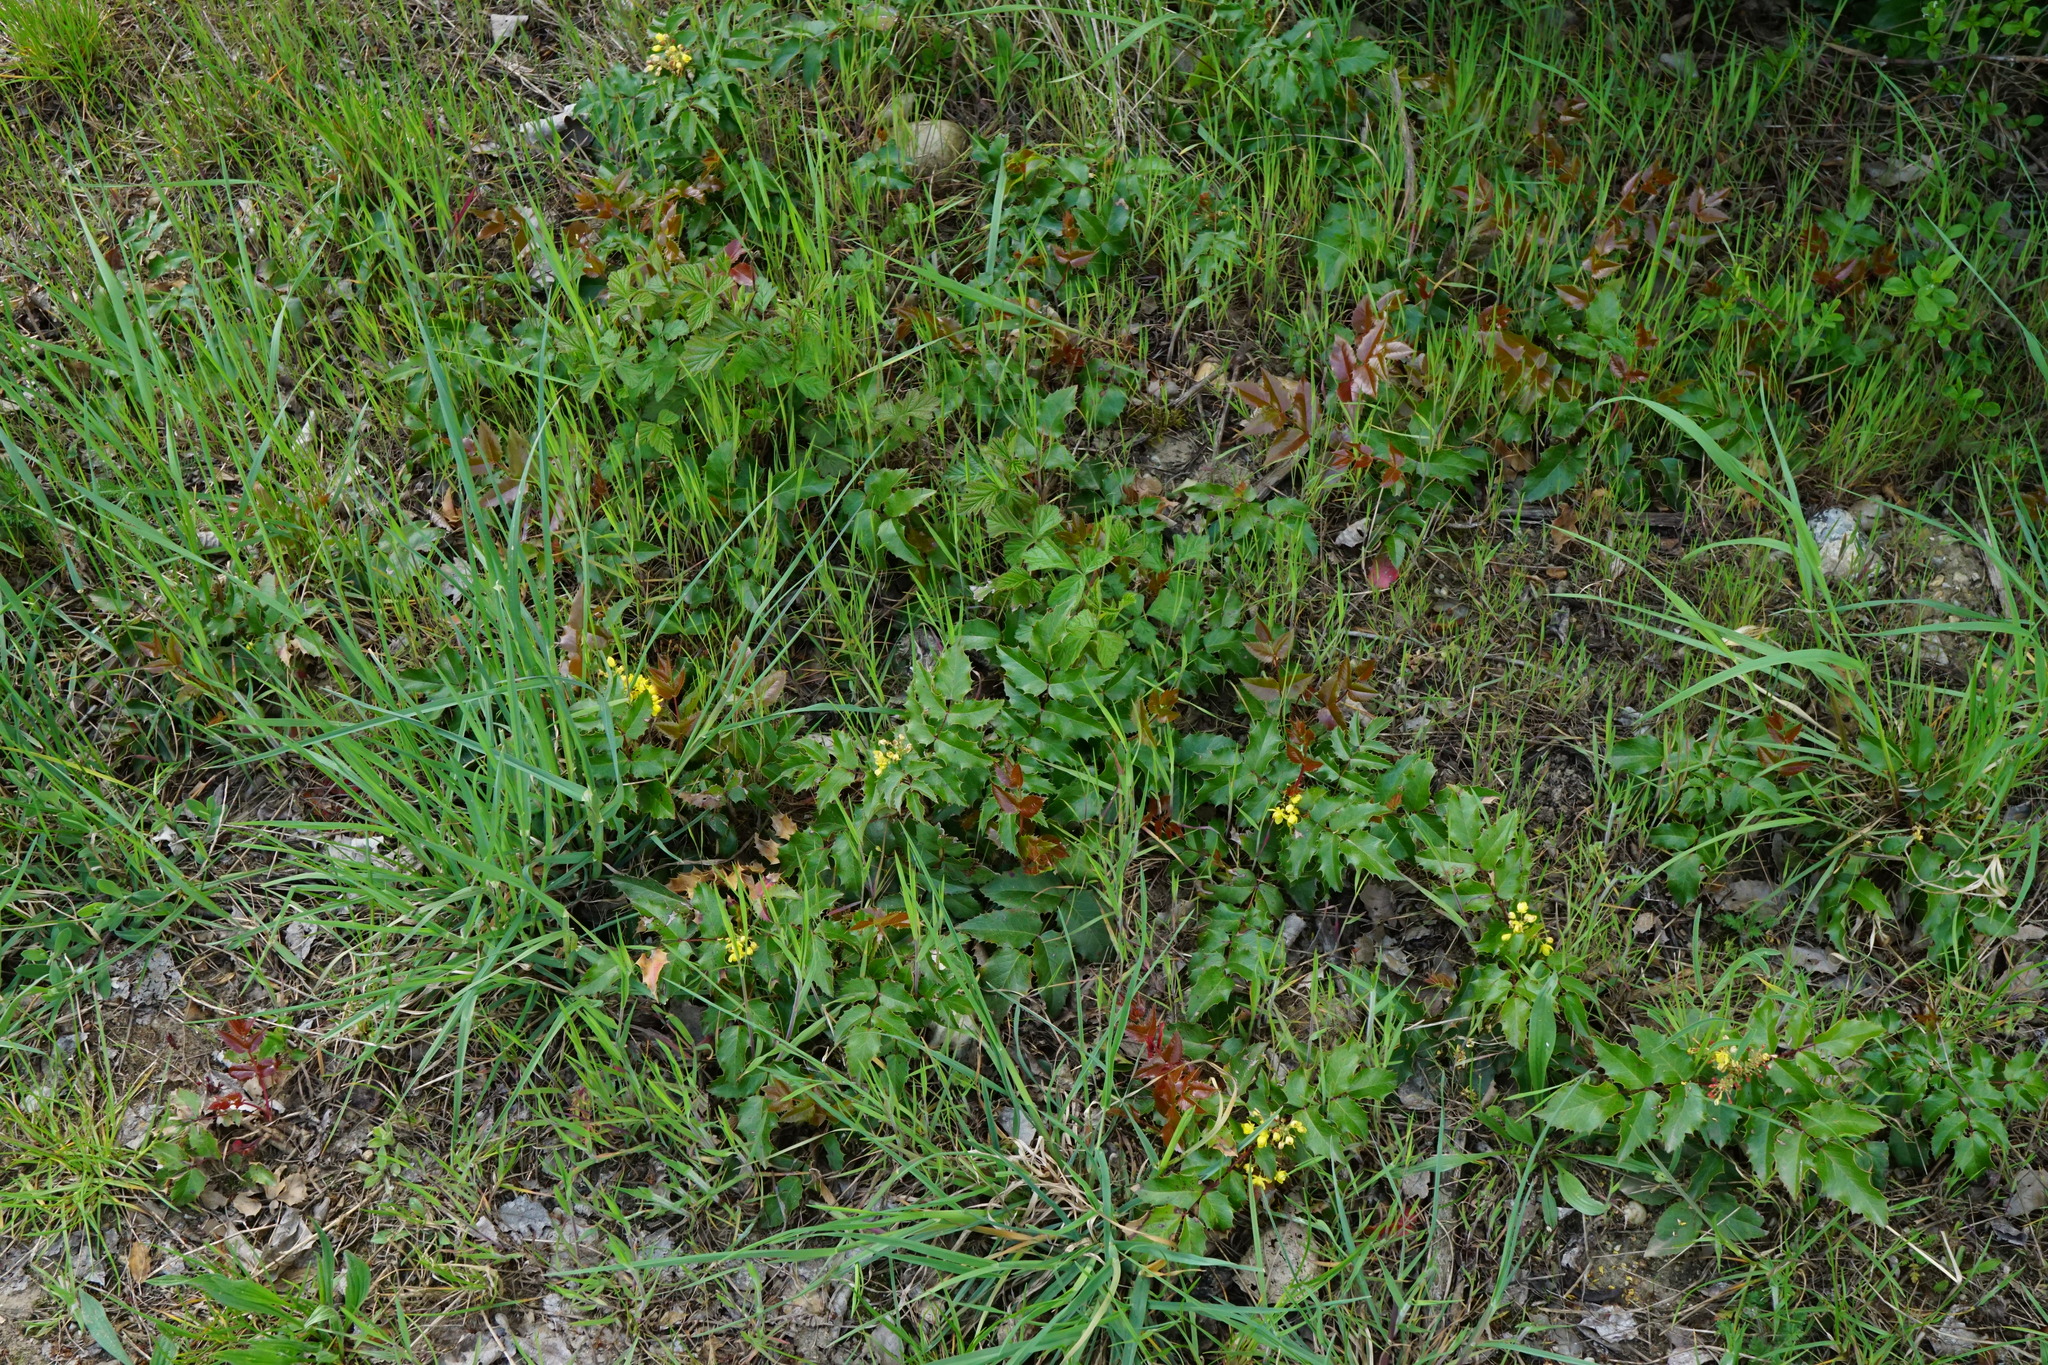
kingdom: Plantae
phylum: Tracheophyta
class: Magnoliopsida
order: Ranunculales
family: Berberidaceae
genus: Mahonia
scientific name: Mahonia aquifolium
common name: Oregon-grape
